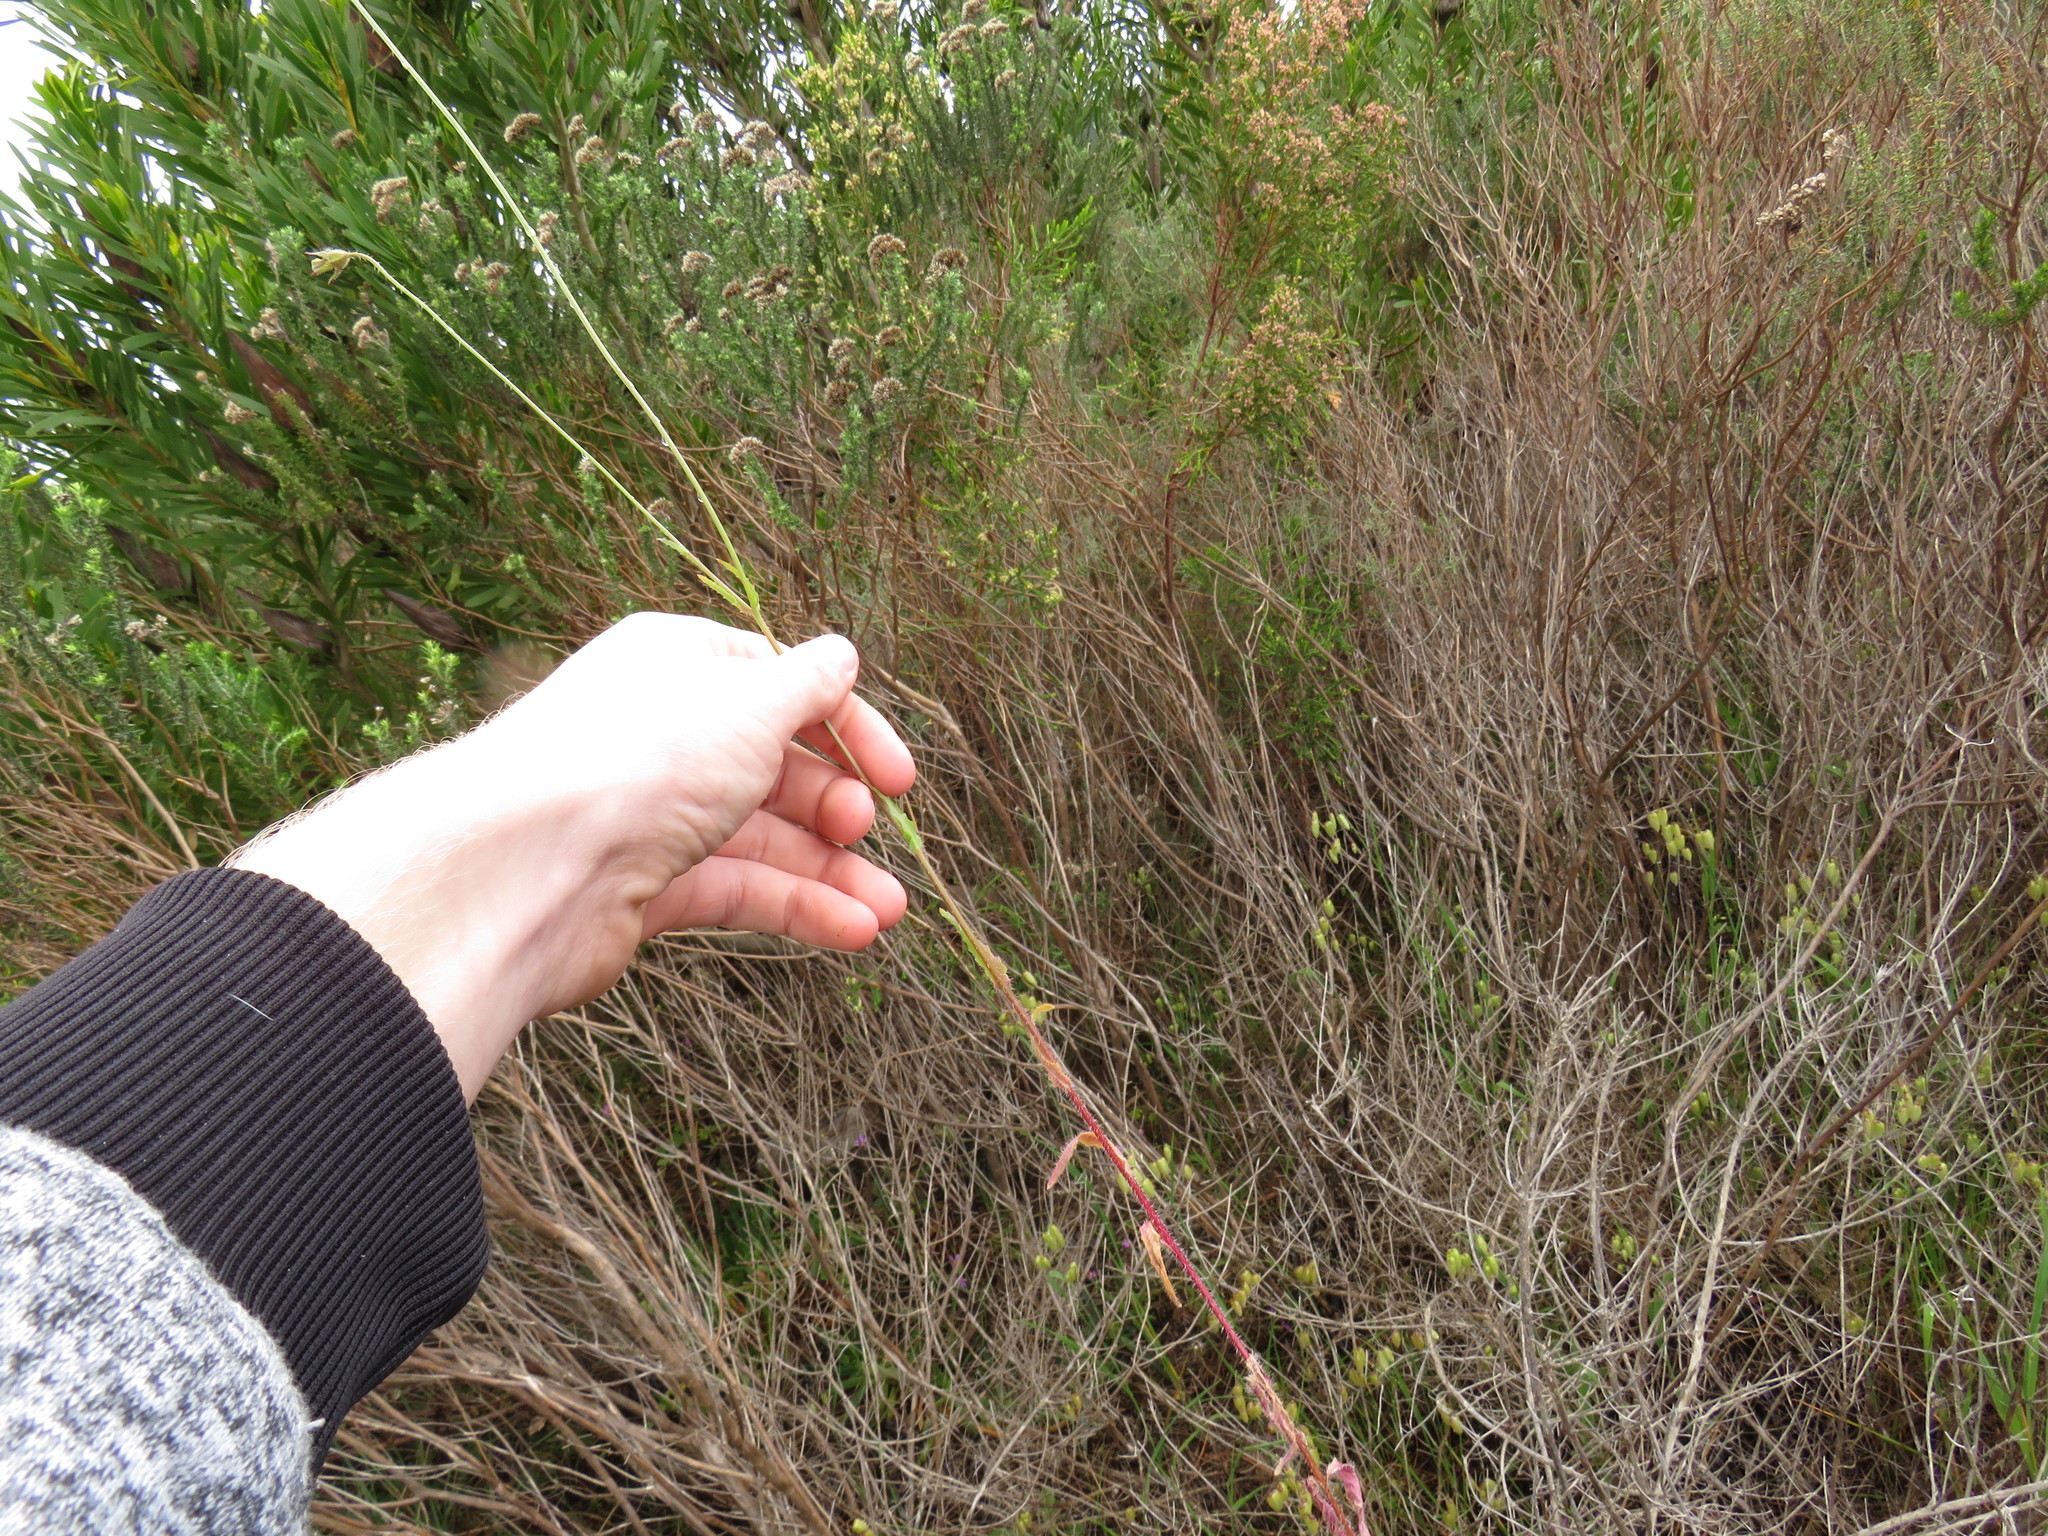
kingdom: Plantae
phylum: Tracheophyta
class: Magnoliopsida
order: Asterales
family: Campanulaceae
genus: Wahlenbergia
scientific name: Wahlenbergia capensis
